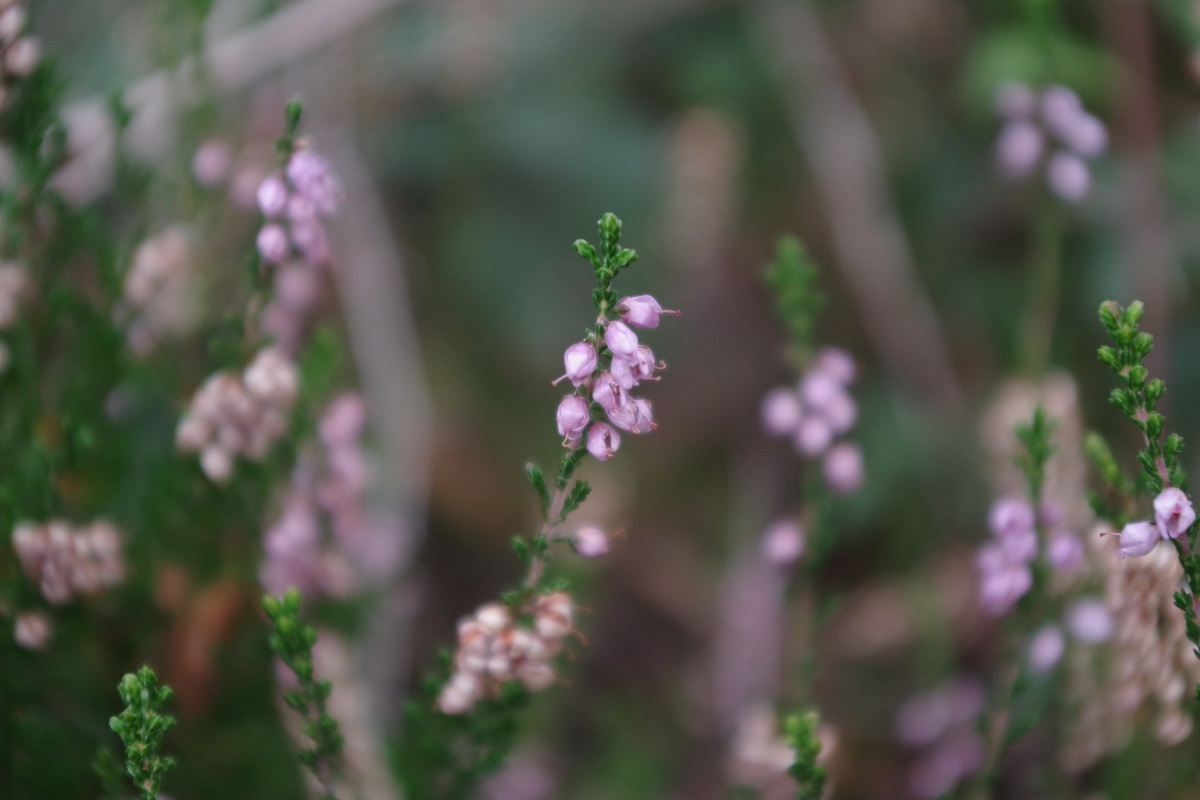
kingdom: Plantae
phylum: Tracheophyta
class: Magnoliopsida
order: Ericales
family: Ericaceae
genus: Calluna
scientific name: Calluna vulgaris
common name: Heather
